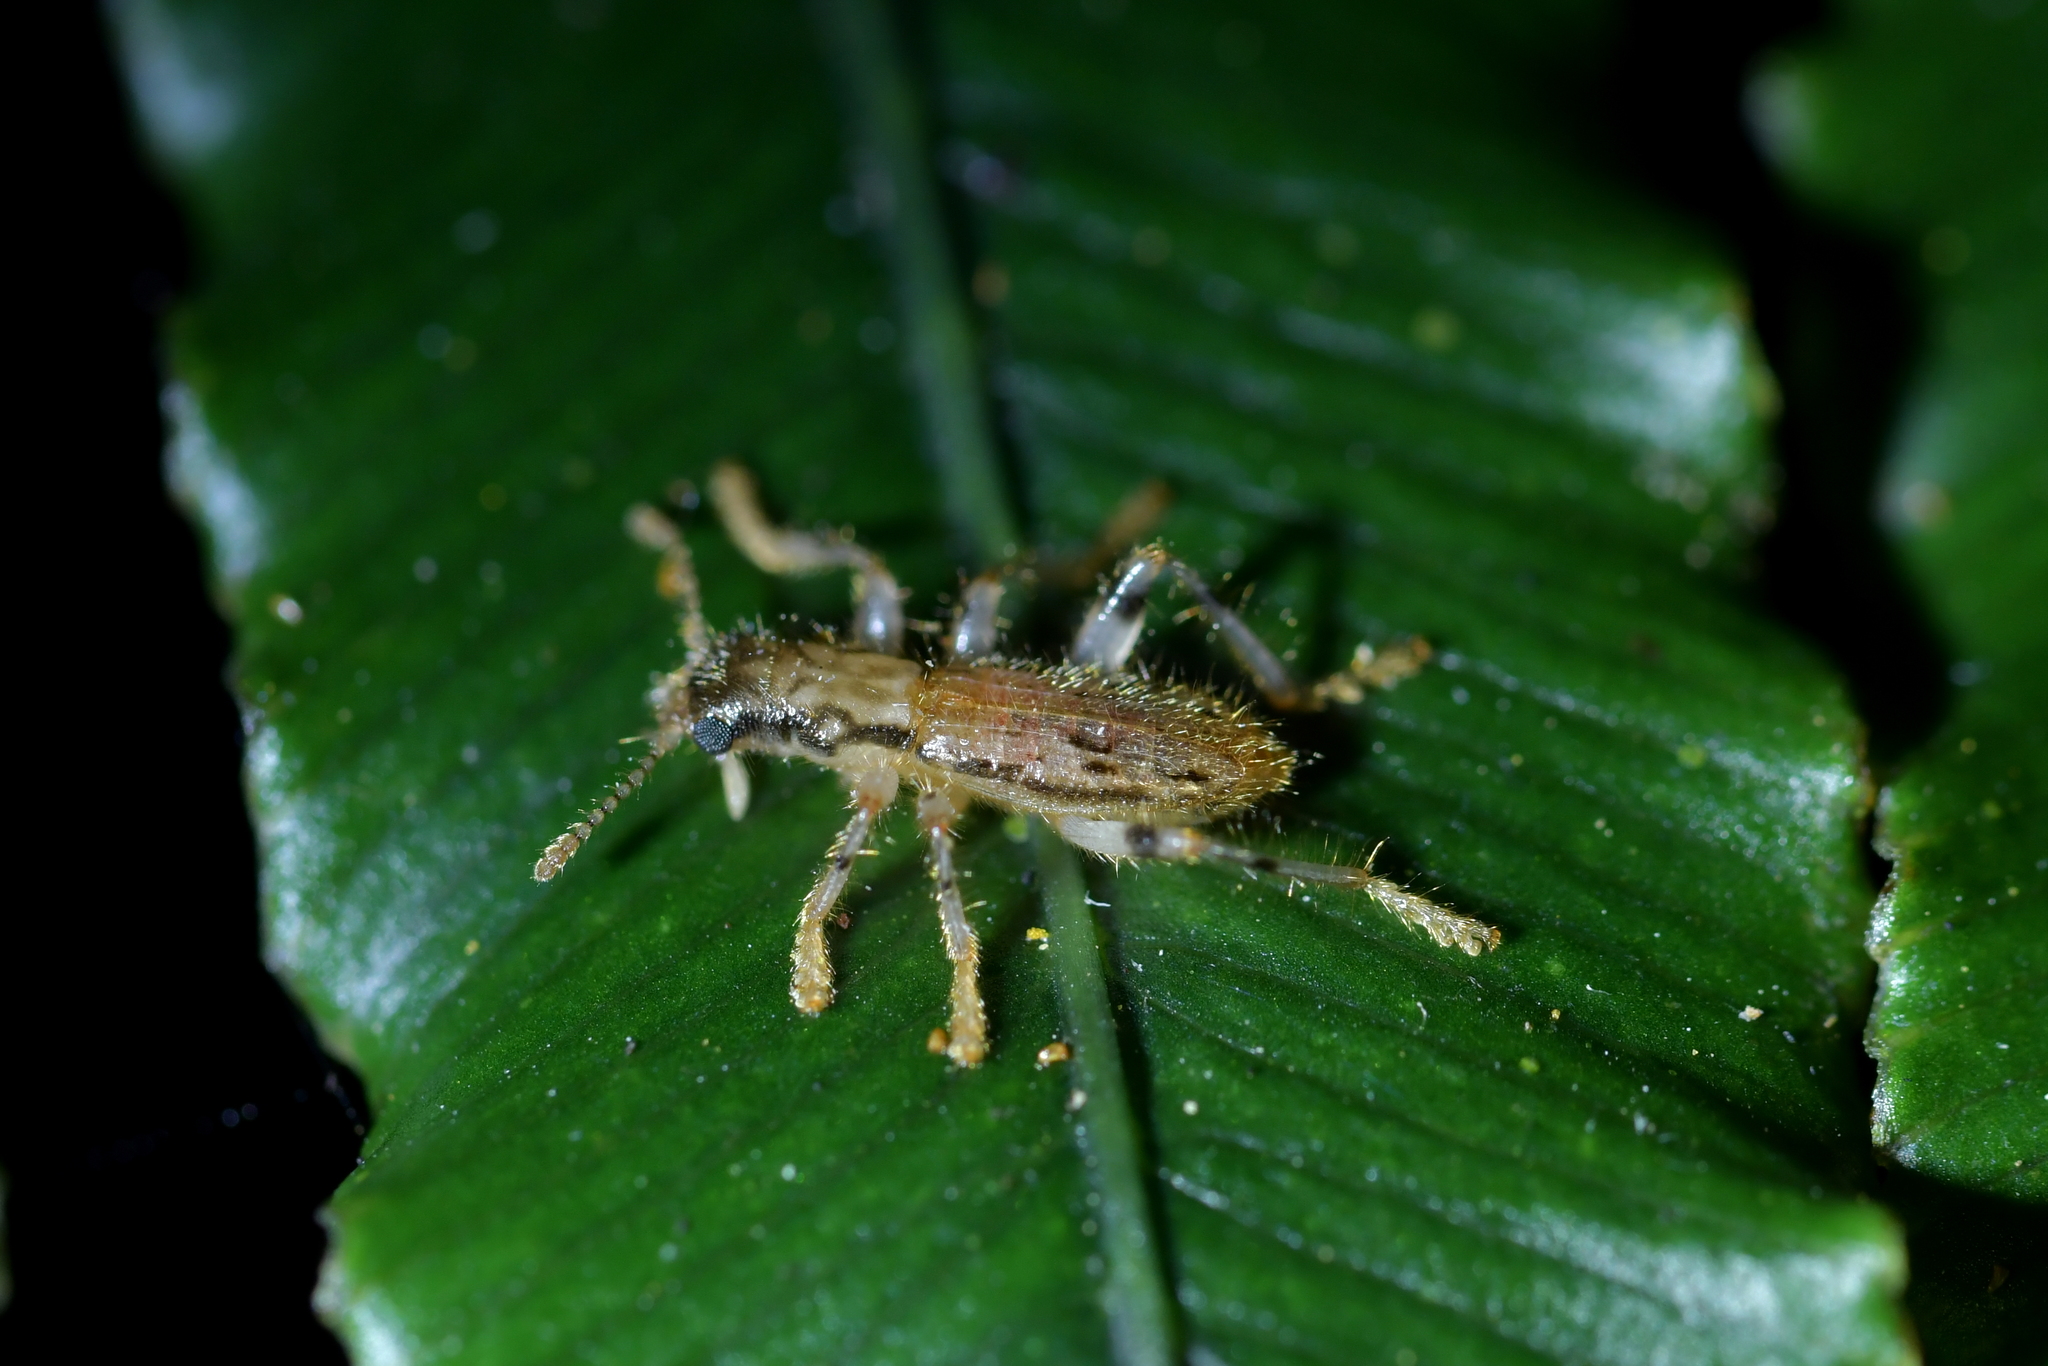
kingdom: Animalia
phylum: Arthropoda
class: Insecta
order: Coleoptera
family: Cleridae
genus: Lemidia
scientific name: Lemidia
